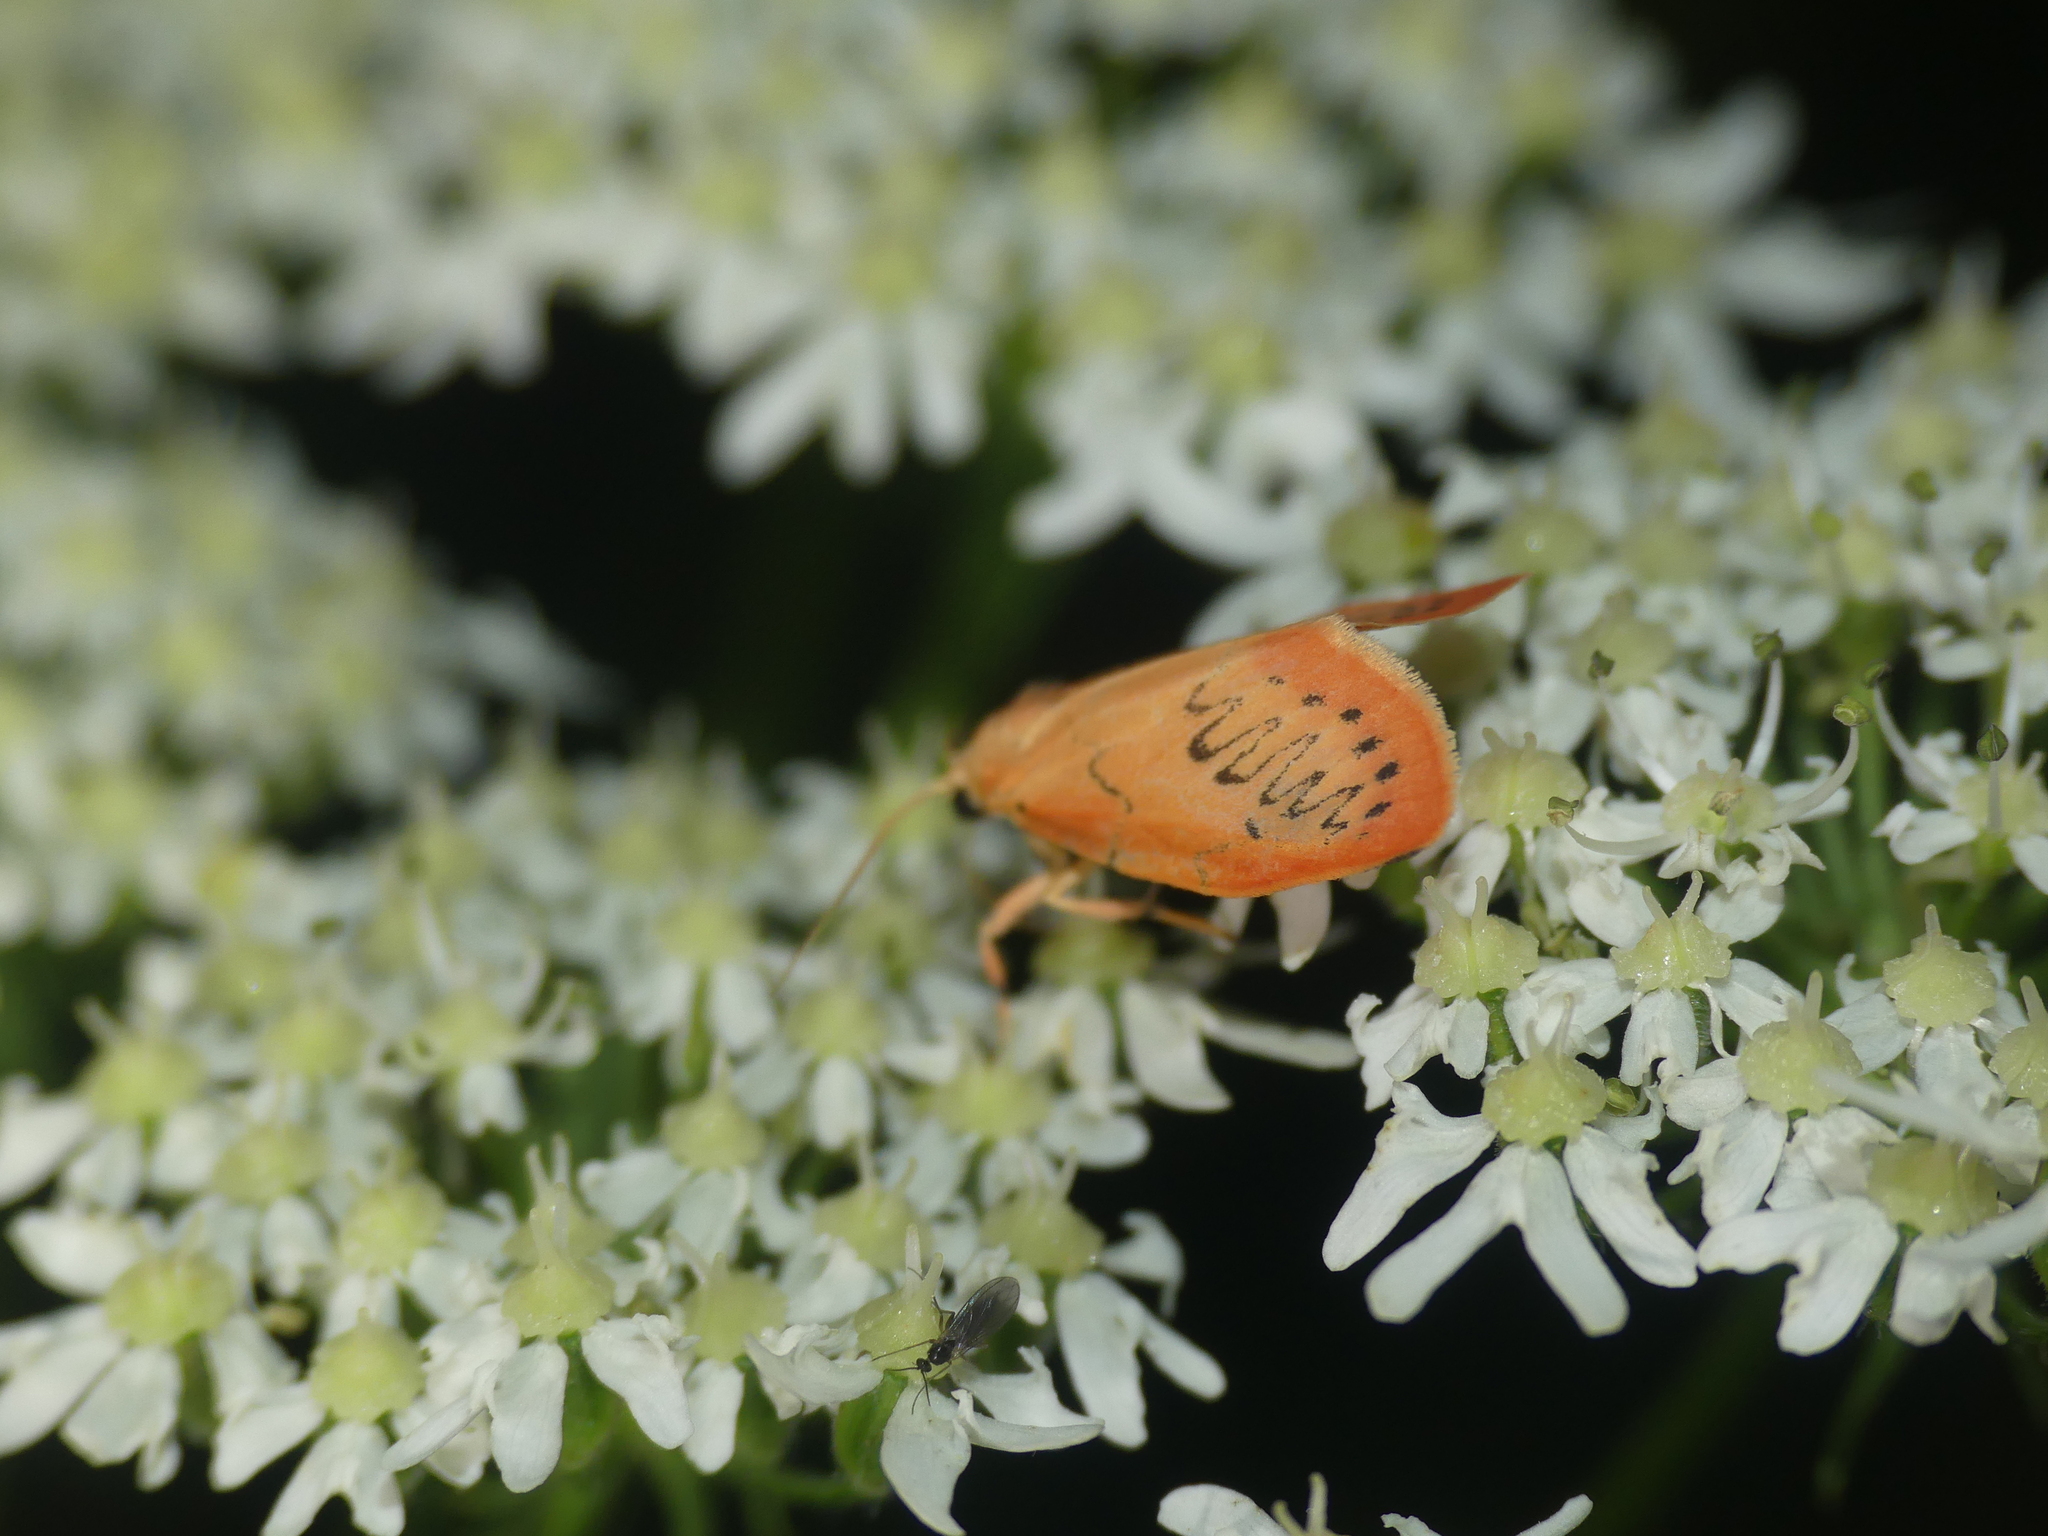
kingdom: Animalia
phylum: Arthropoda
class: Insecta
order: Lepidoptera
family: Erebidae
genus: Miltochrista
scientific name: Miltochrista miniata
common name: Rosy footman
